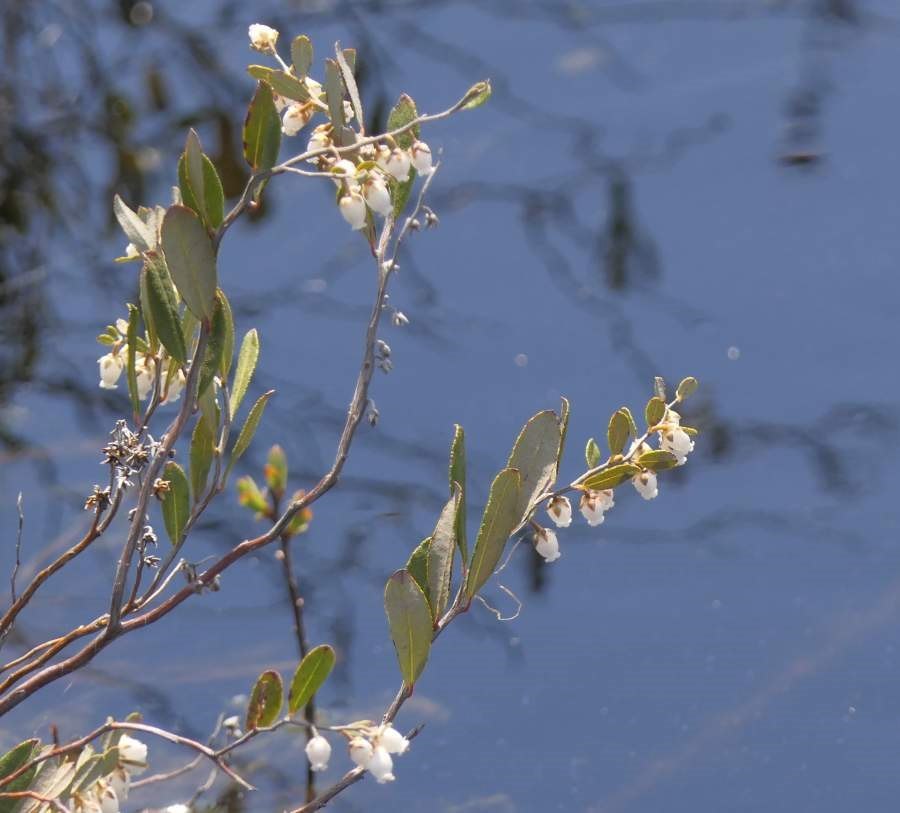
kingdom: Plantae
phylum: Tracheophyta
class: Magnoliopsida
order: Ericales
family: Ericaceae
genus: Chamaedaphne
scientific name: Chamaedaphne calyculata
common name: Leatherleaf
